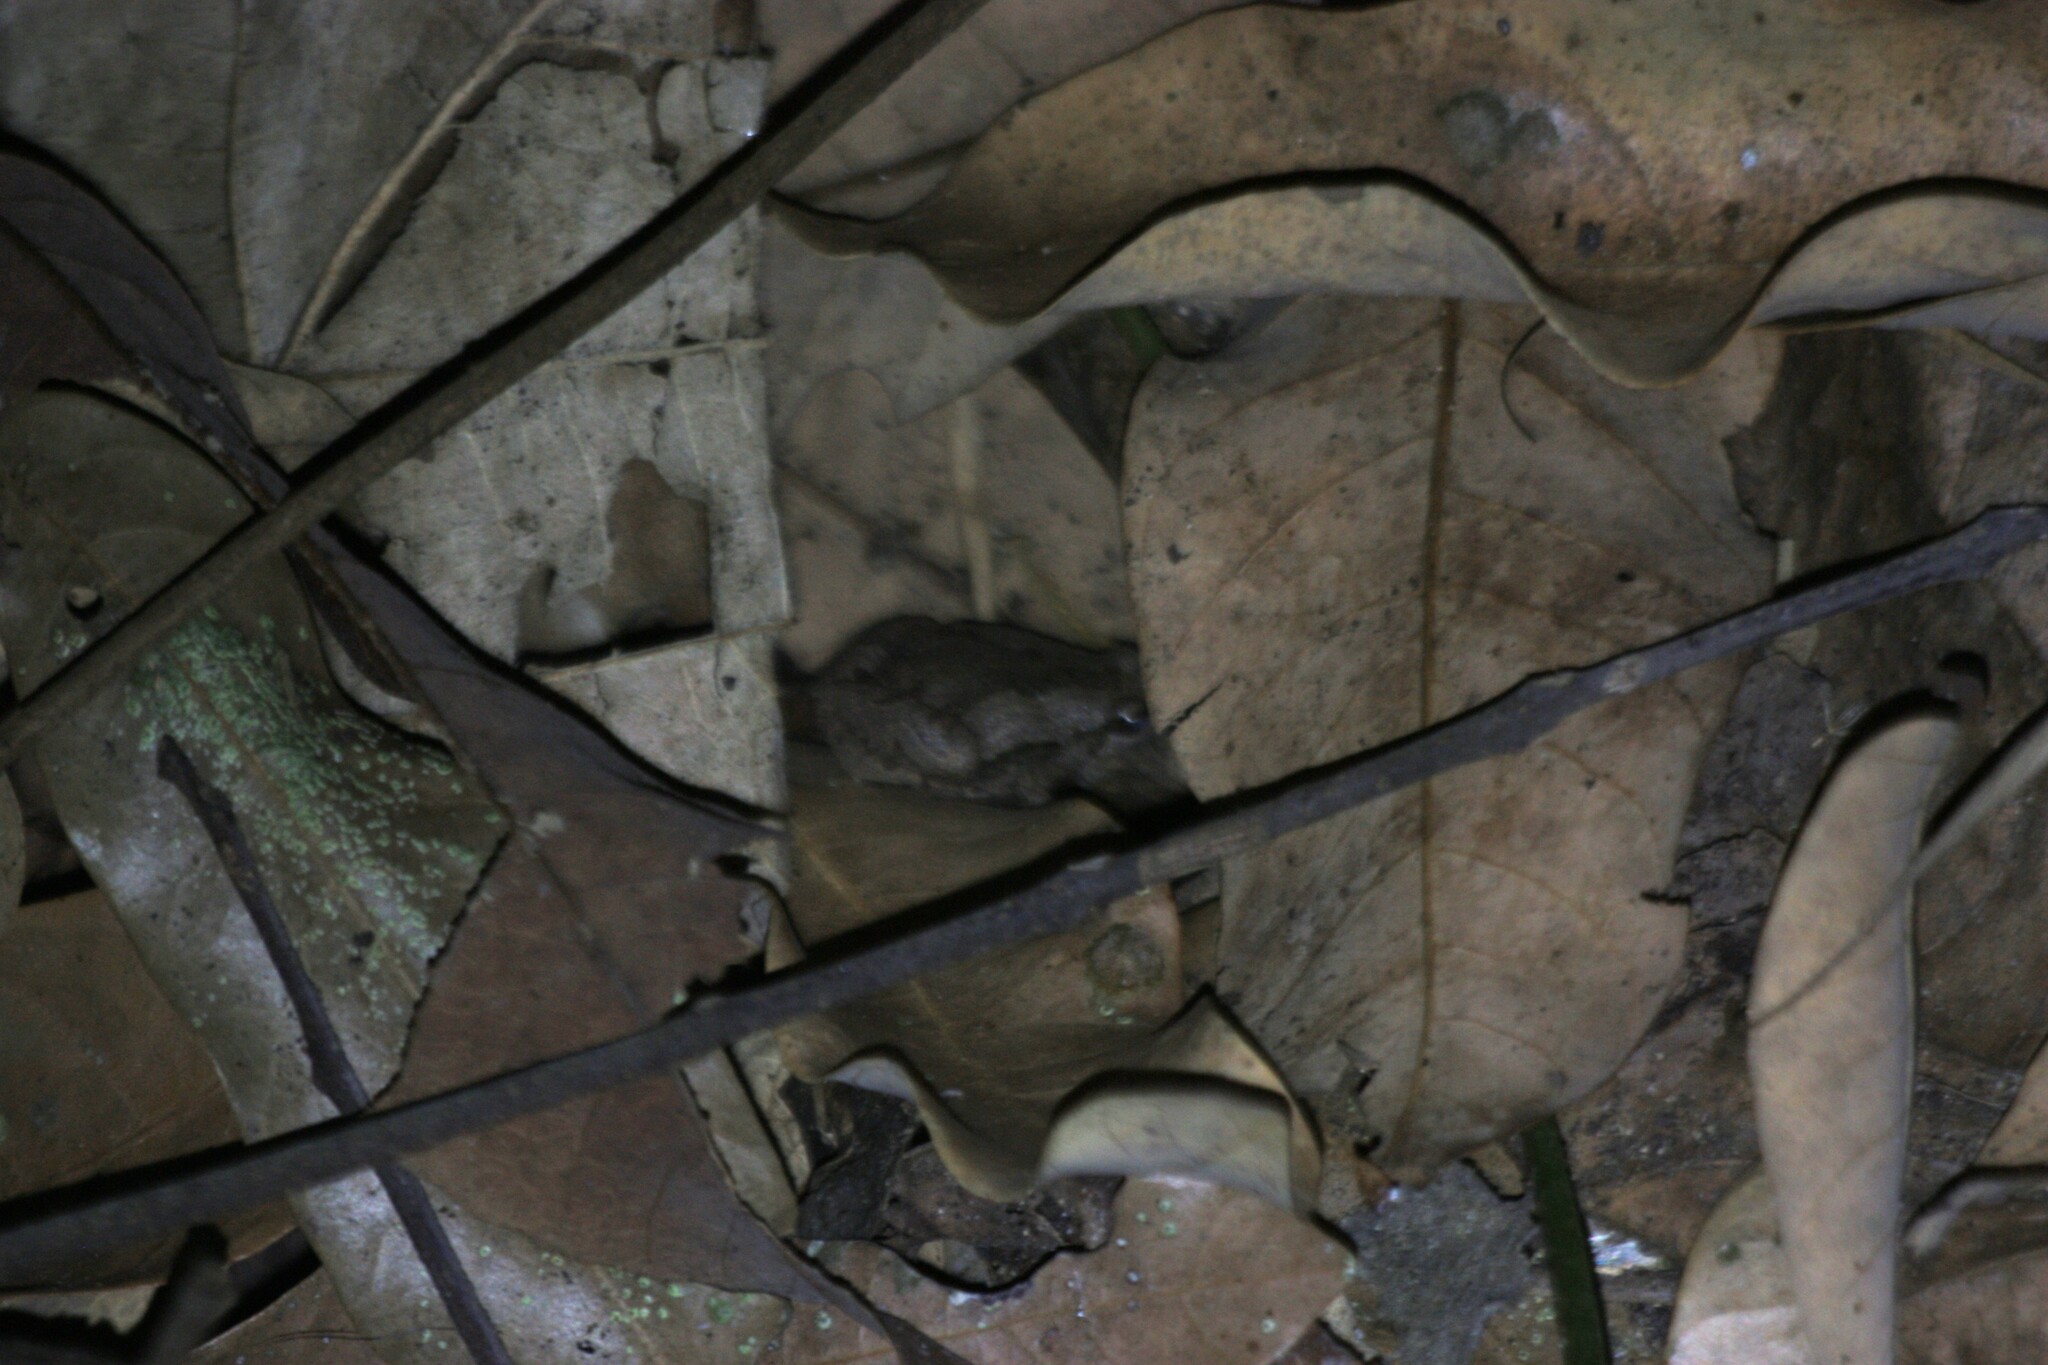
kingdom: Animalia
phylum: Chordata
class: Amphibia
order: Anura
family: Microhylidae
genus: Microhyla
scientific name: Microhyla fissipes
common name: Ornate narrow-mouthed frog
